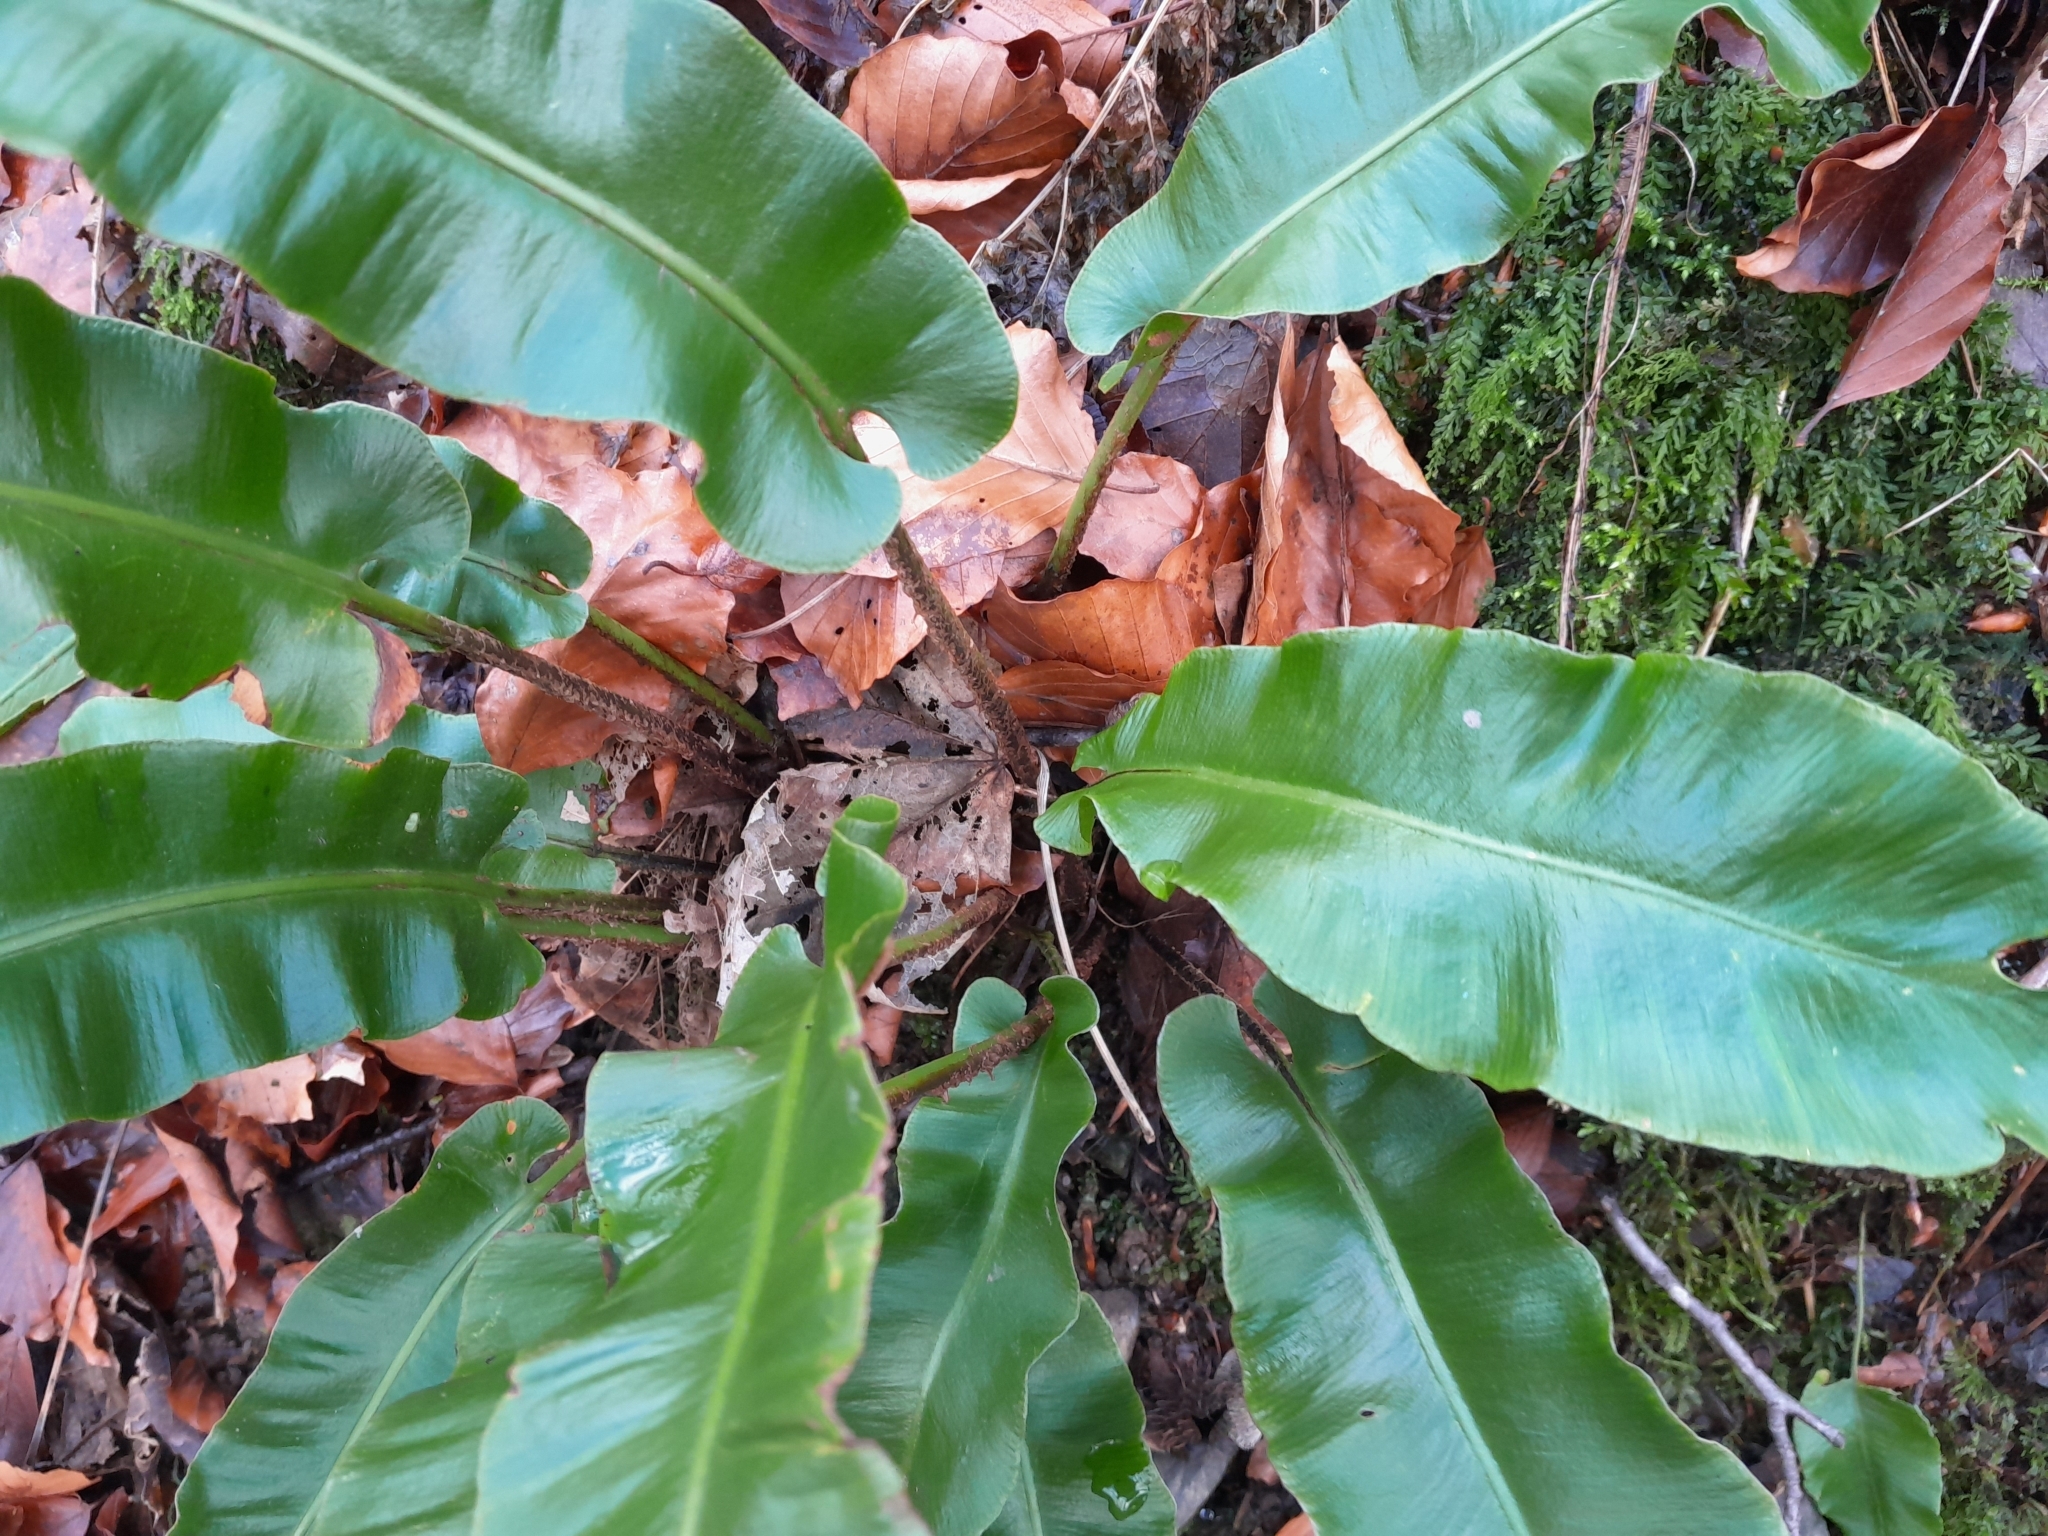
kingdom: Plantae
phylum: Tracheophyta
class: Polypodiopsida
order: Polypodiales
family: Aspleniaceae
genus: Asplenium
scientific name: Asplenium scolopendrium
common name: Hart's-tongue fern
